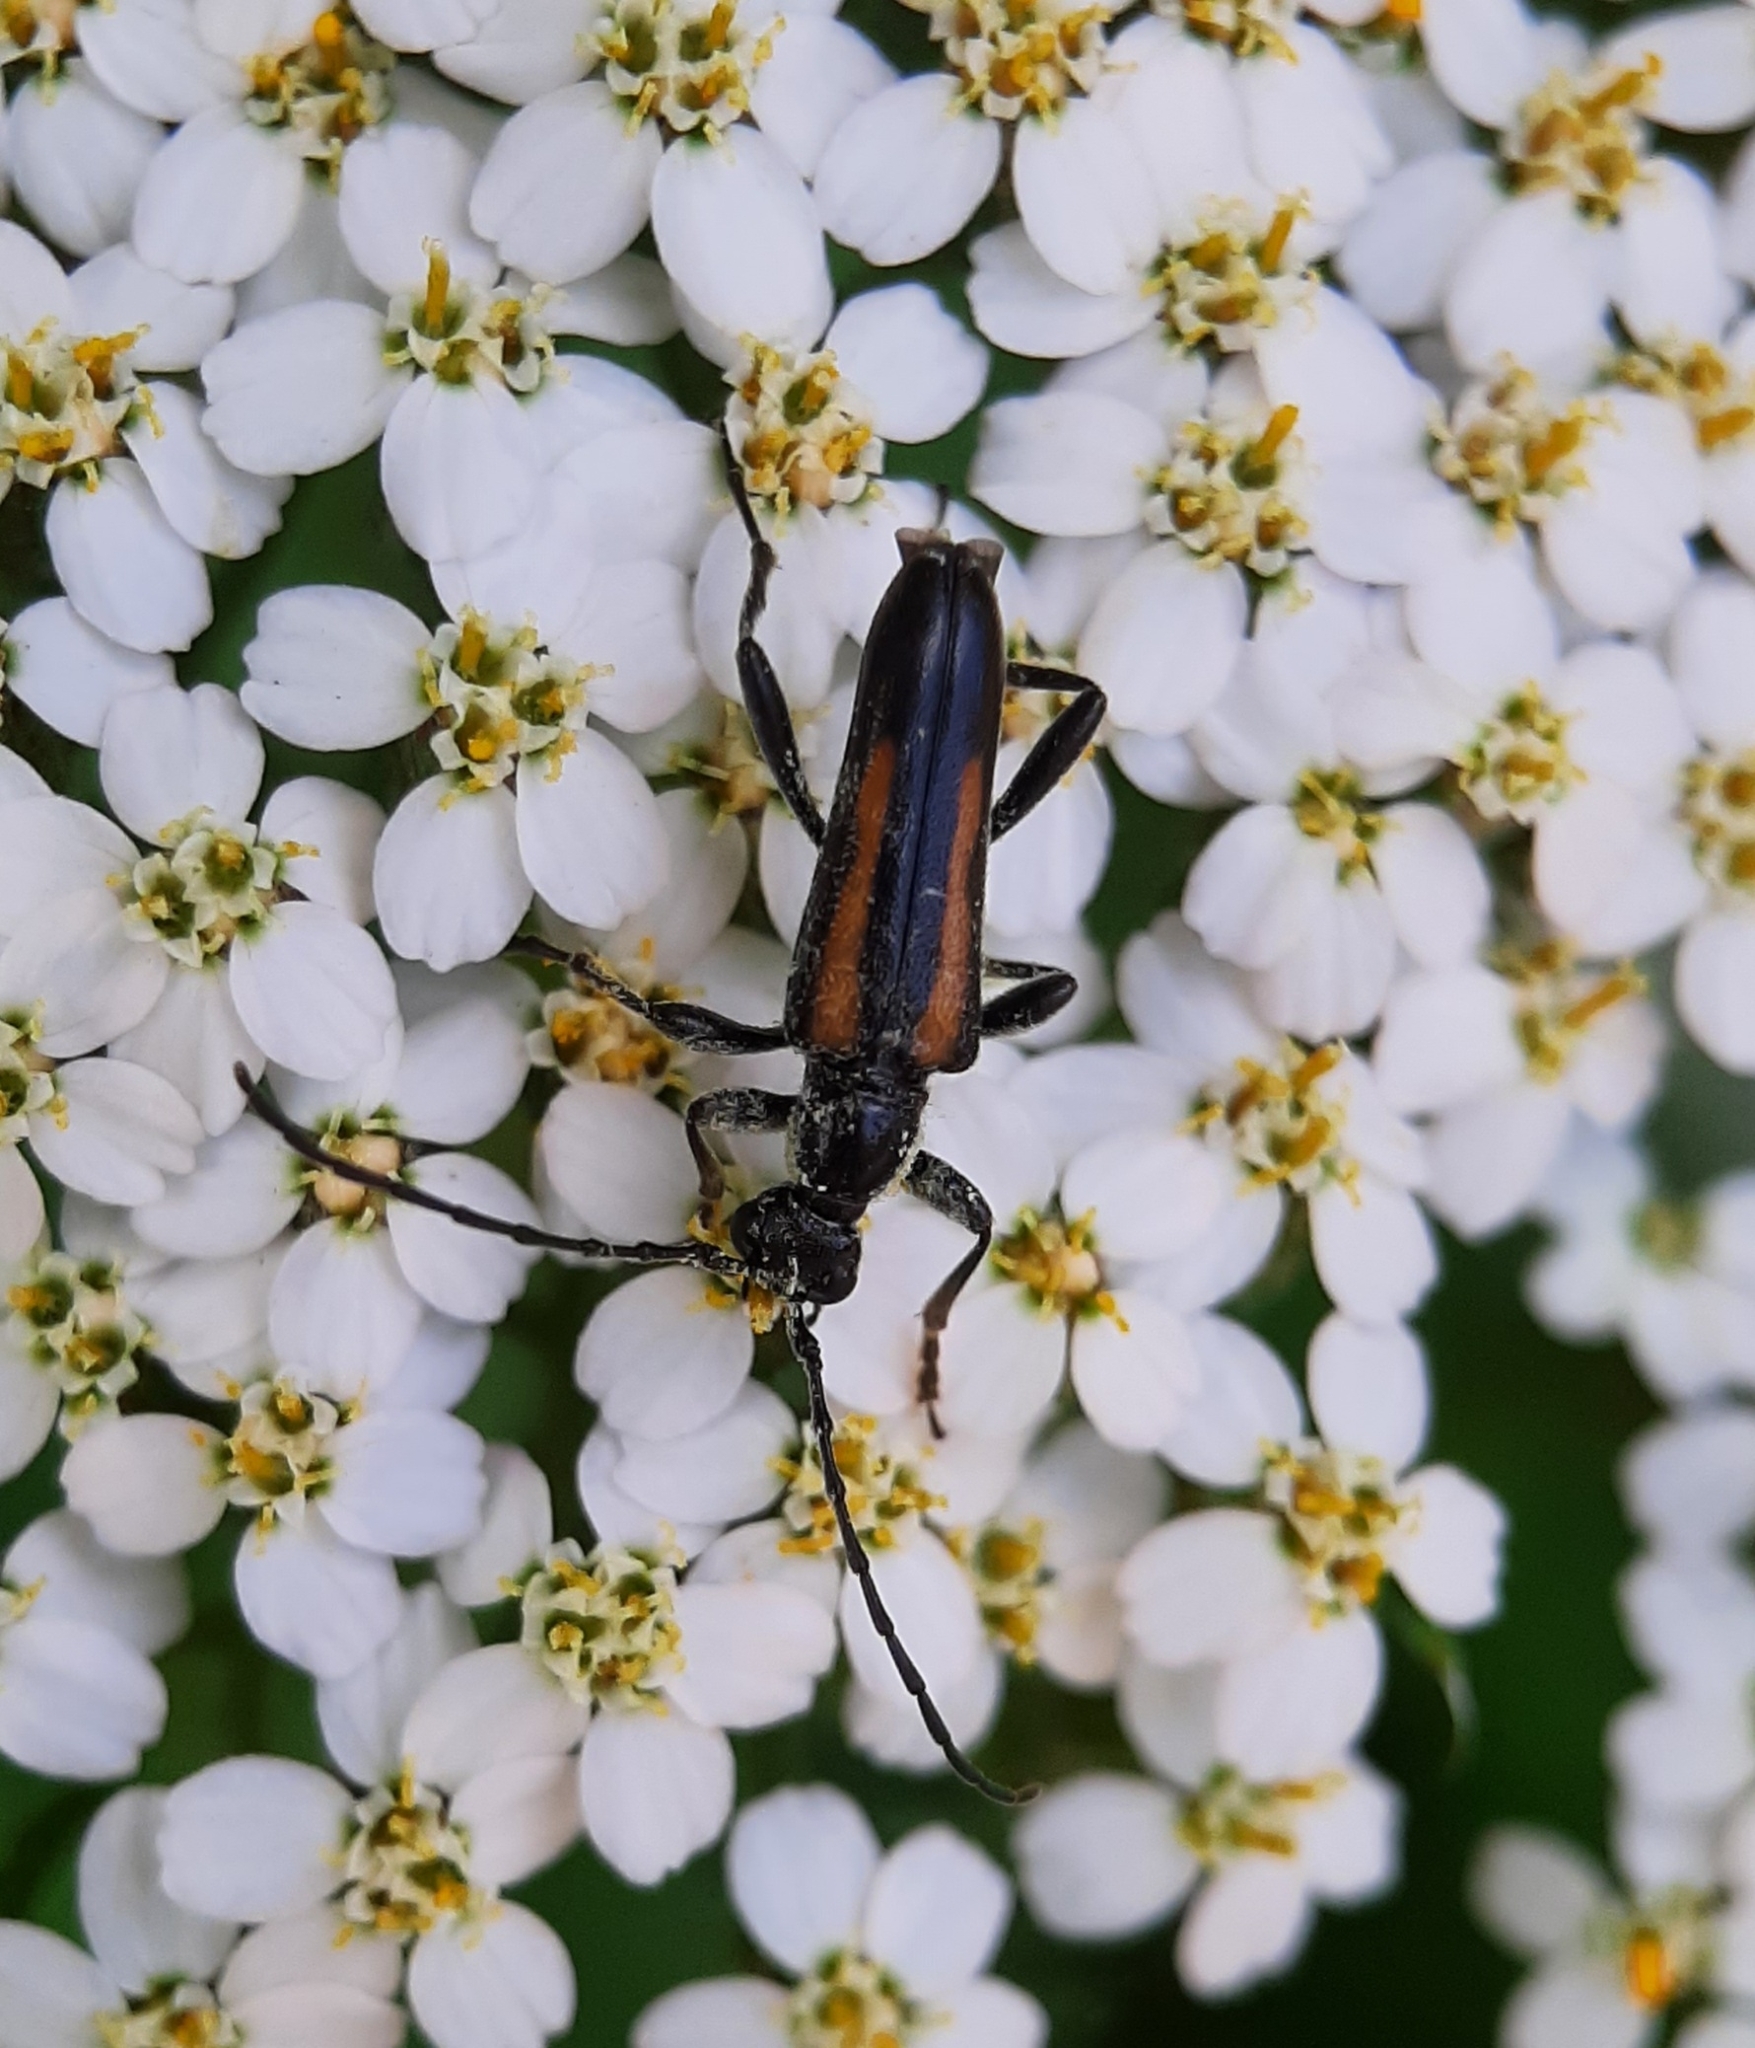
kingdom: Animalia
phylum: Arthropoda
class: Insecta
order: Coleoptera
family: Cerambycidae
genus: Strangalepta
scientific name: Strangalepta abbreviata
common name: Strangalepta flower longhorn beetle
